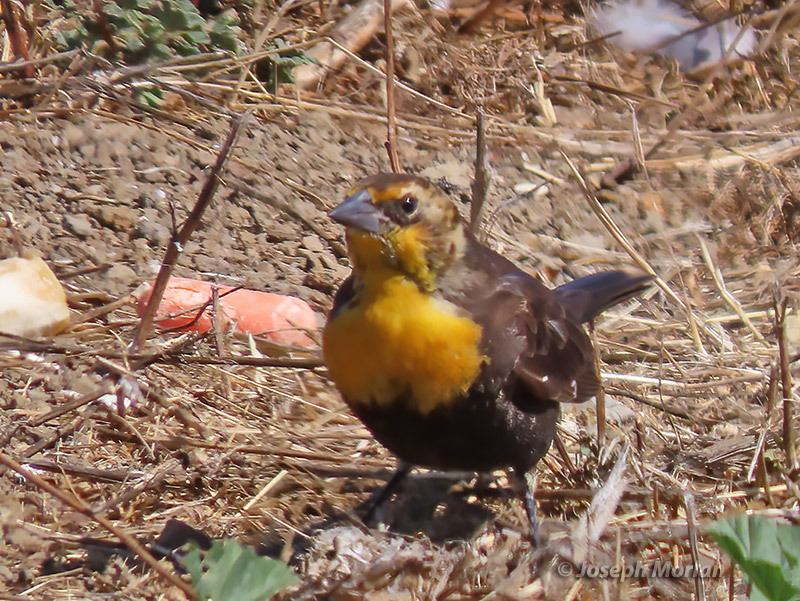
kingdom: Animalia
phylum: Chordata
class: Aves
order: Passeriformes
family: Icteridae
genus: Xanthocephalus
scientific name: Xanthocephalus xanthocephalus
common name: Yellow-headed blackbird
